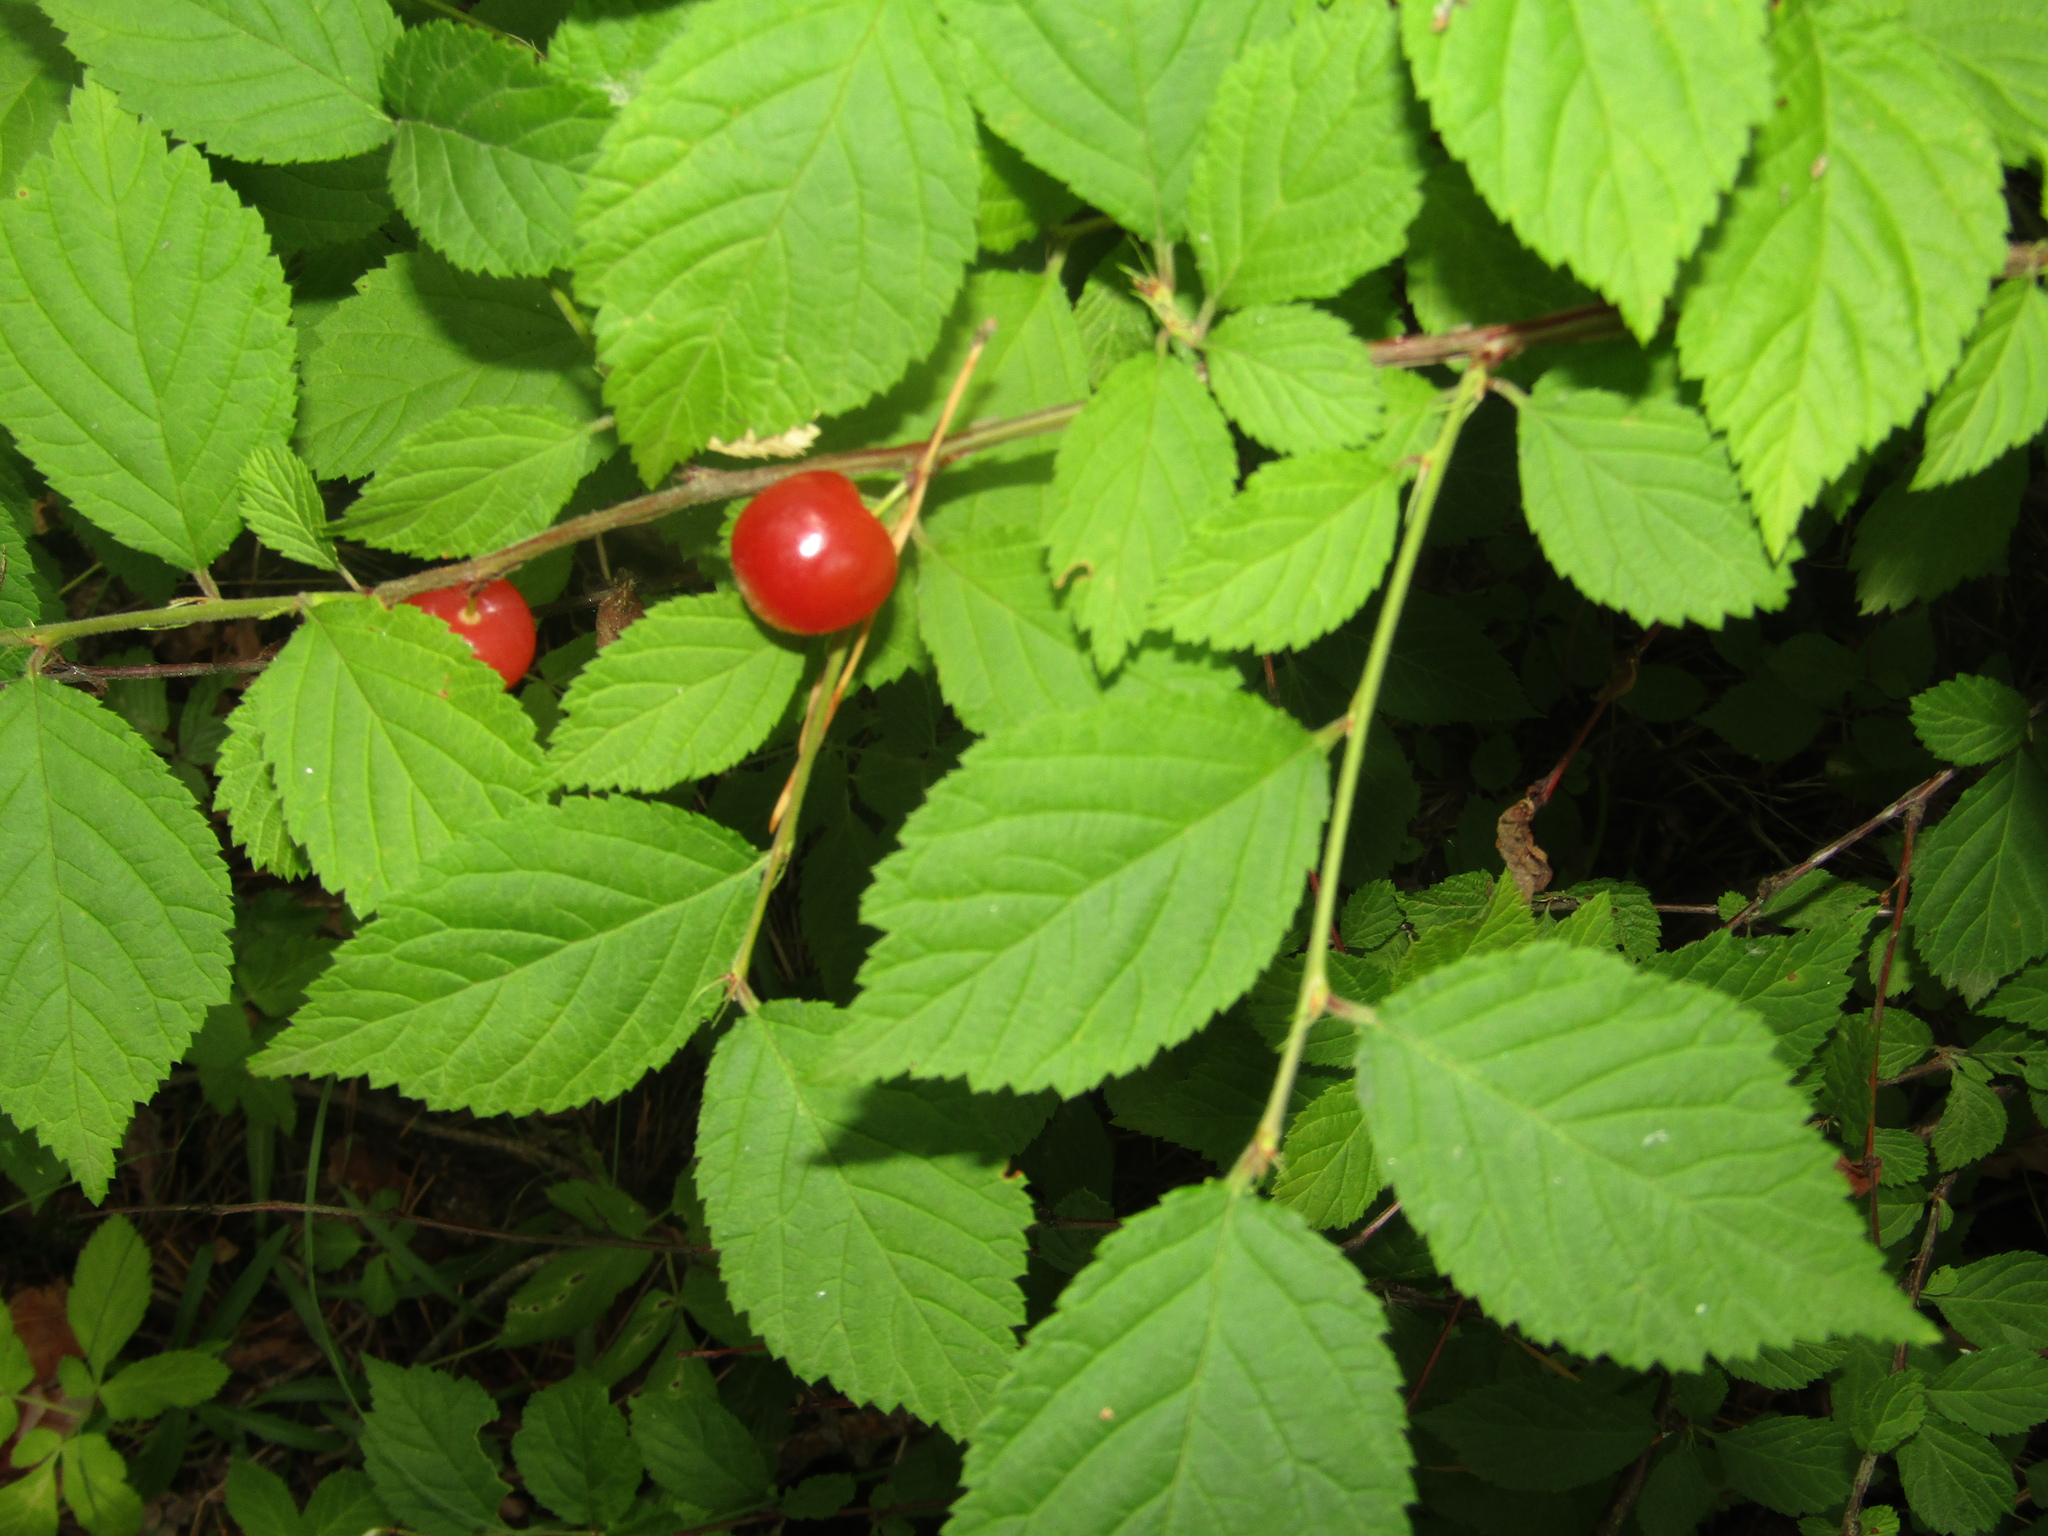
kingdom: Plantae
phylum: Tracheophyta
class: Magnoliopsida
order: Rosales
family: Rosaceae
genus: Prunus
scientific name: Prunus tomentosa
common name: Nanking cherry
